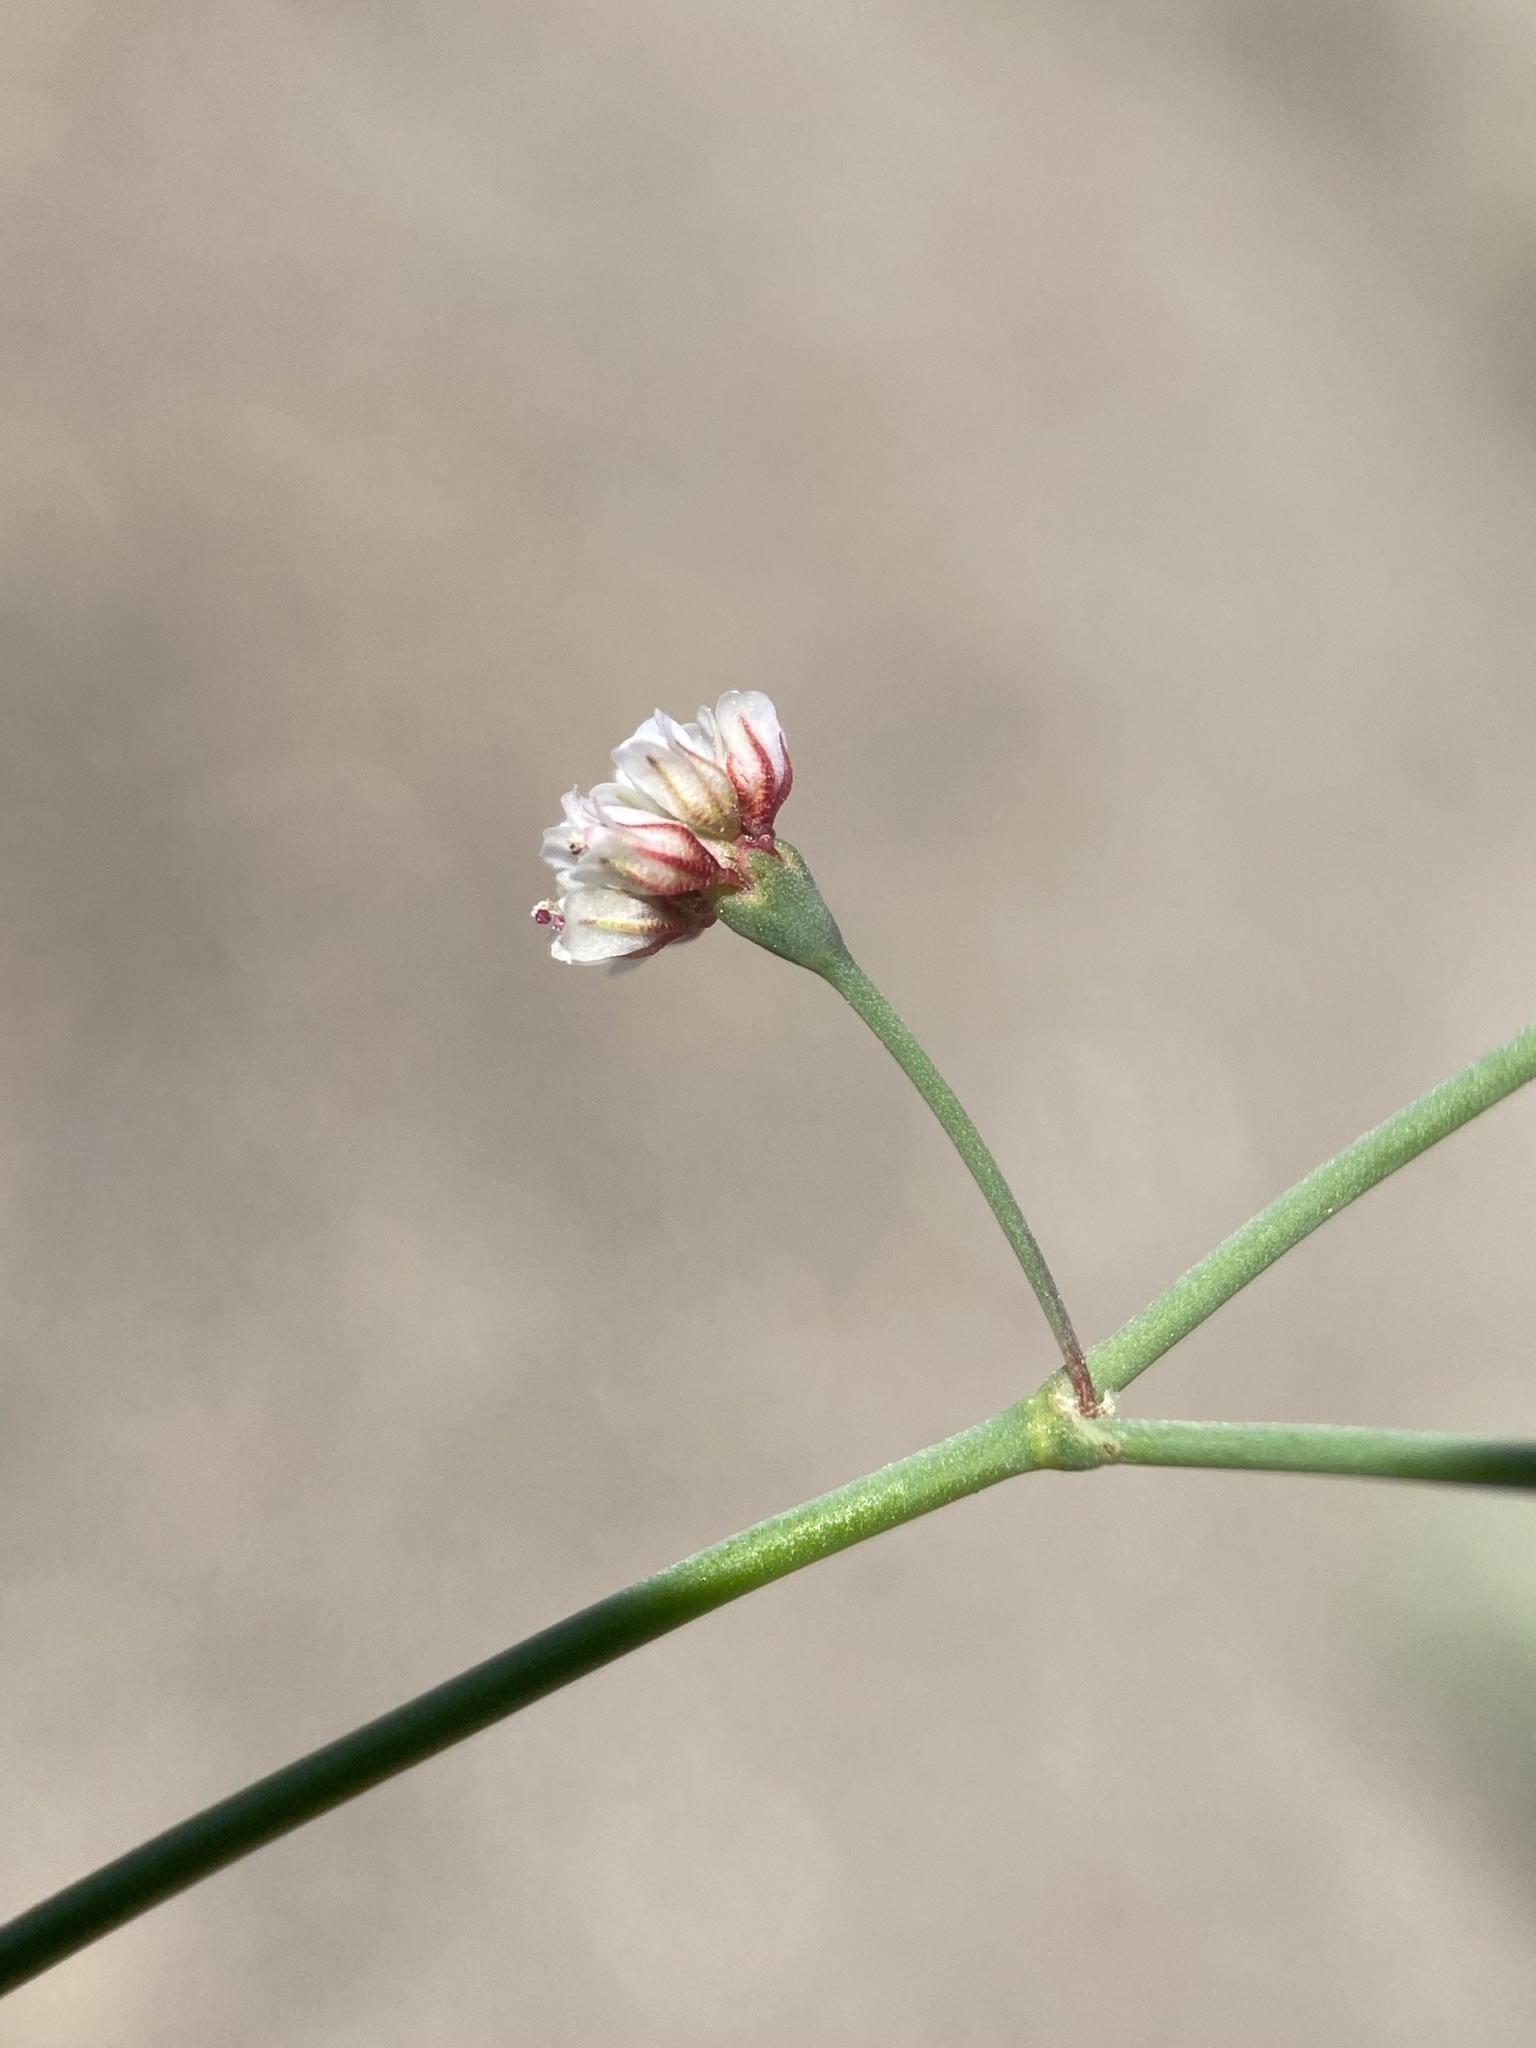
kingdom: Plantae
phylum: Tracheophyta
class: Magnoliopsida
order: Caryophyllales
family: Polygonaceae
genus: Eriogonum
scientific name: Eriogonum nutans
